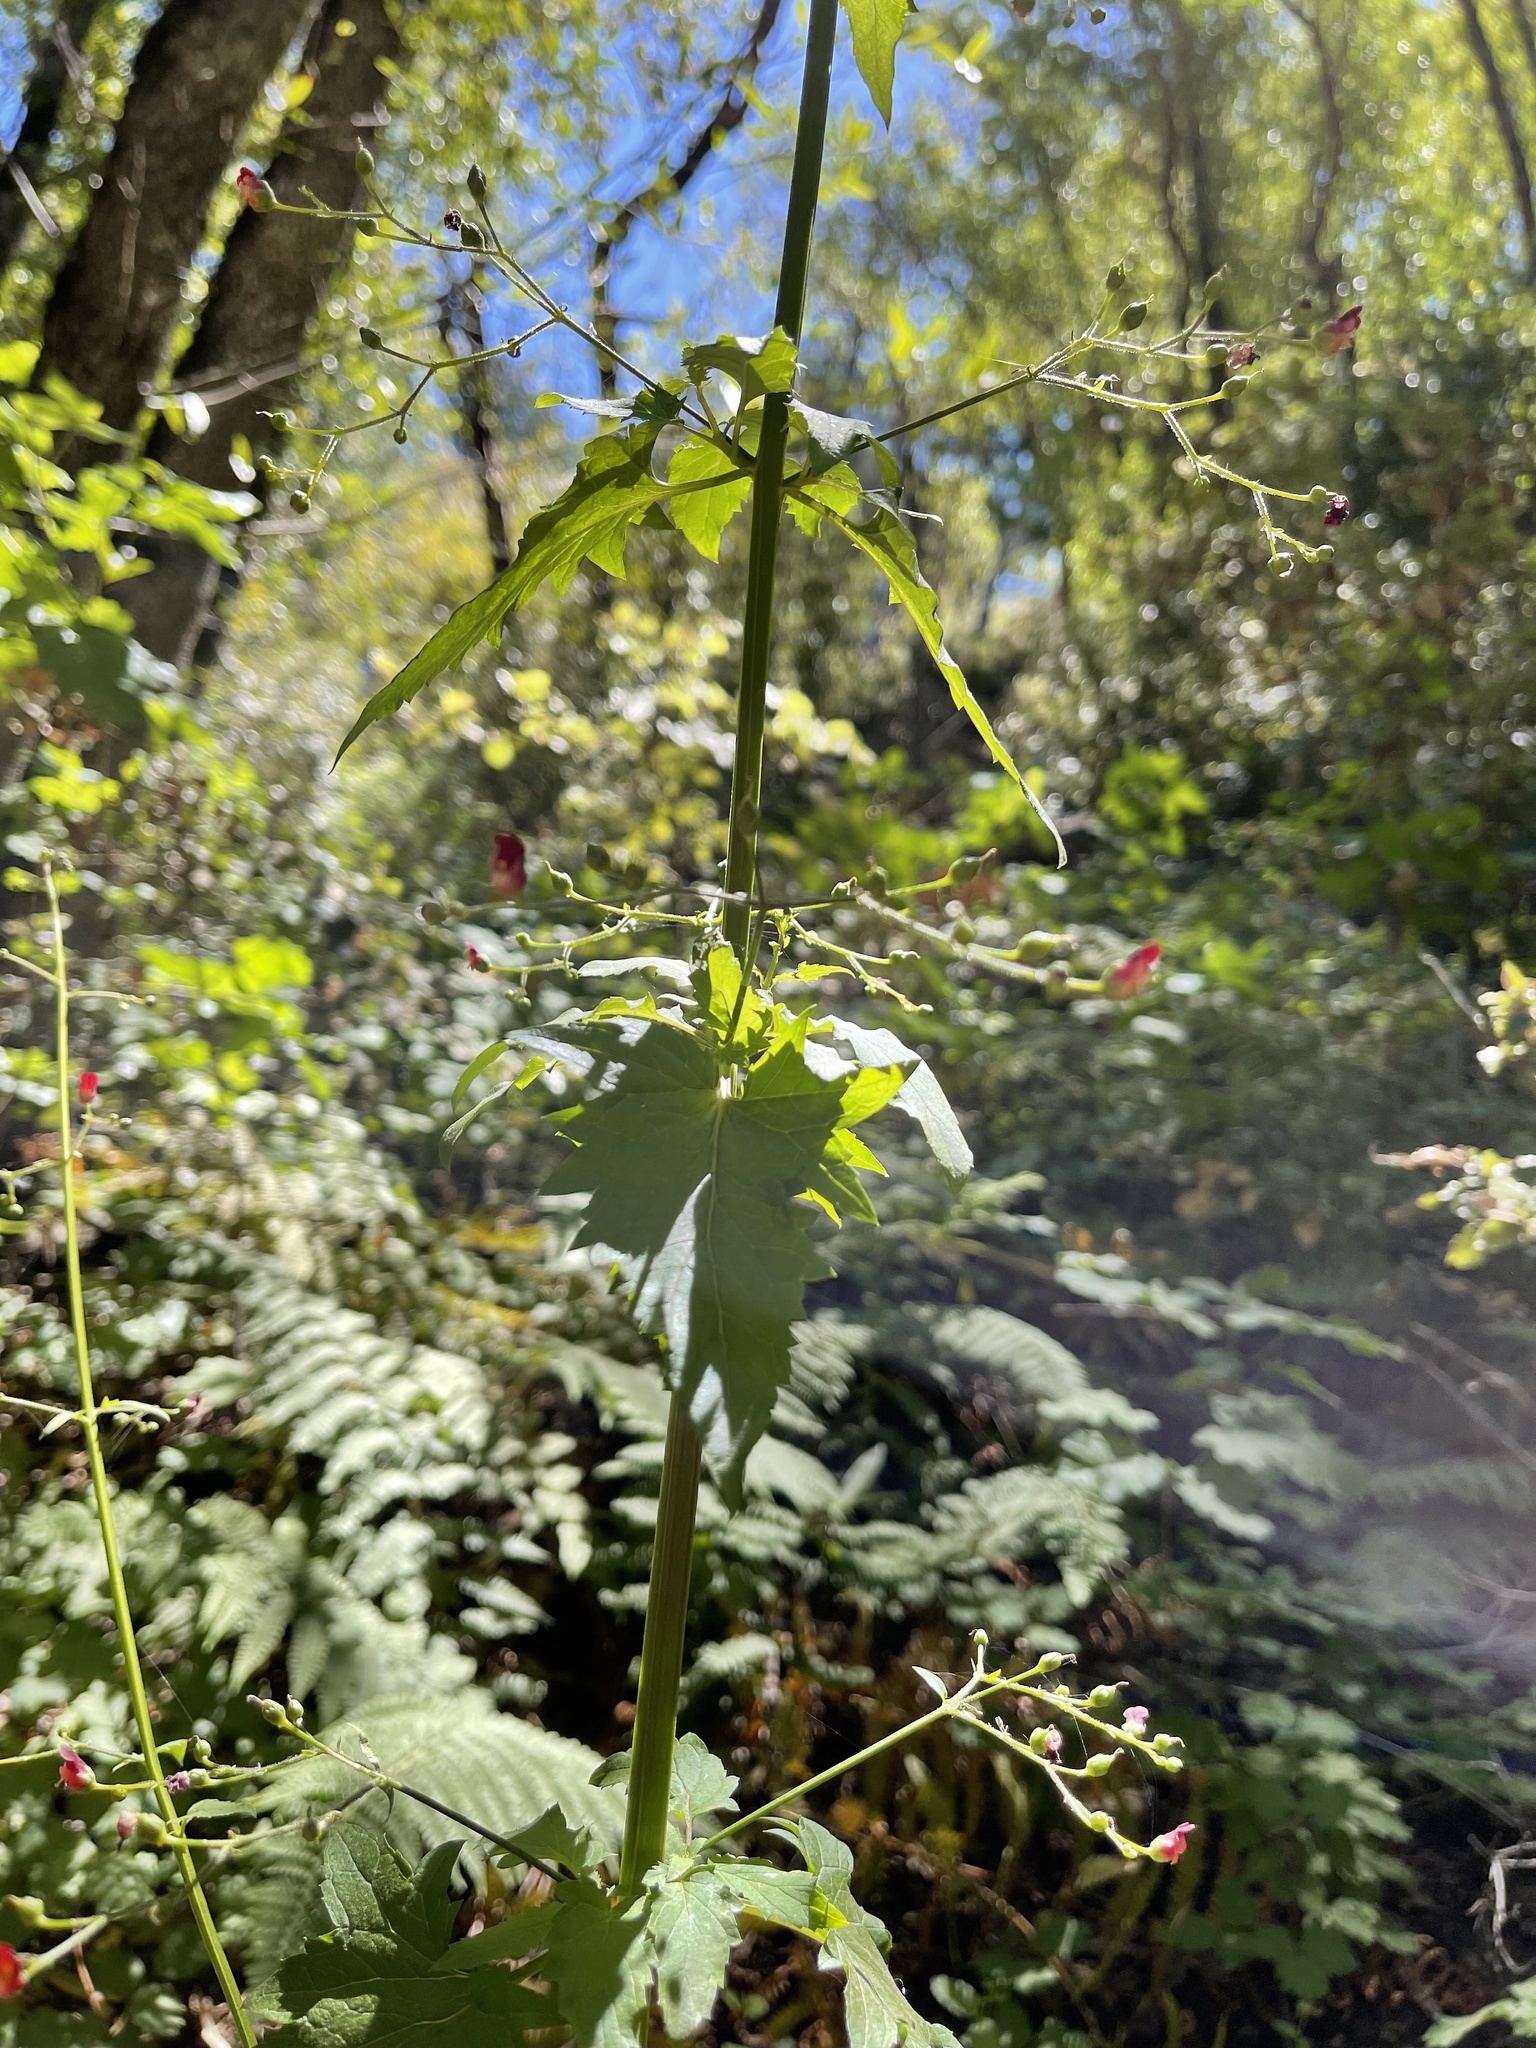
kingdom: Plantae
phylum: Tracheophyta
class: Magnoliopsida
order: Lamiales
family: Scrophulariaceae
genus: Scrophularia
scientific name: Scrophularia californica
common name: California figwort
